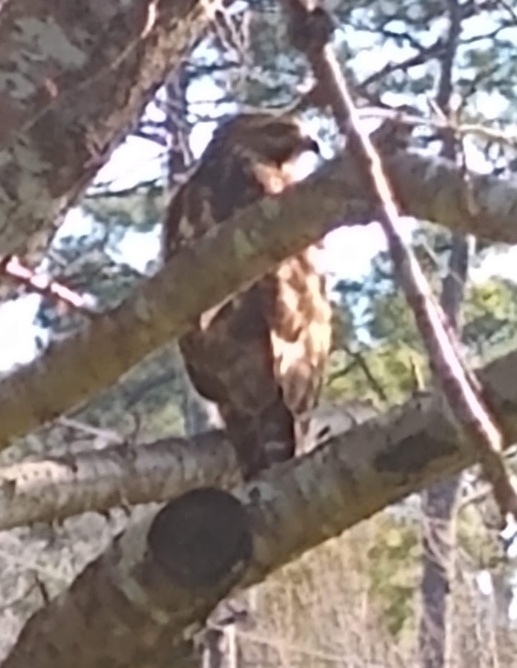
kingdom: Animalia
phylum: Chordata
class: Aves
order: Accipitriformes
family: Accipitridae
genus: Buteo
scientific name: Buteo lineatus
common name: Red-shouldered hawk
